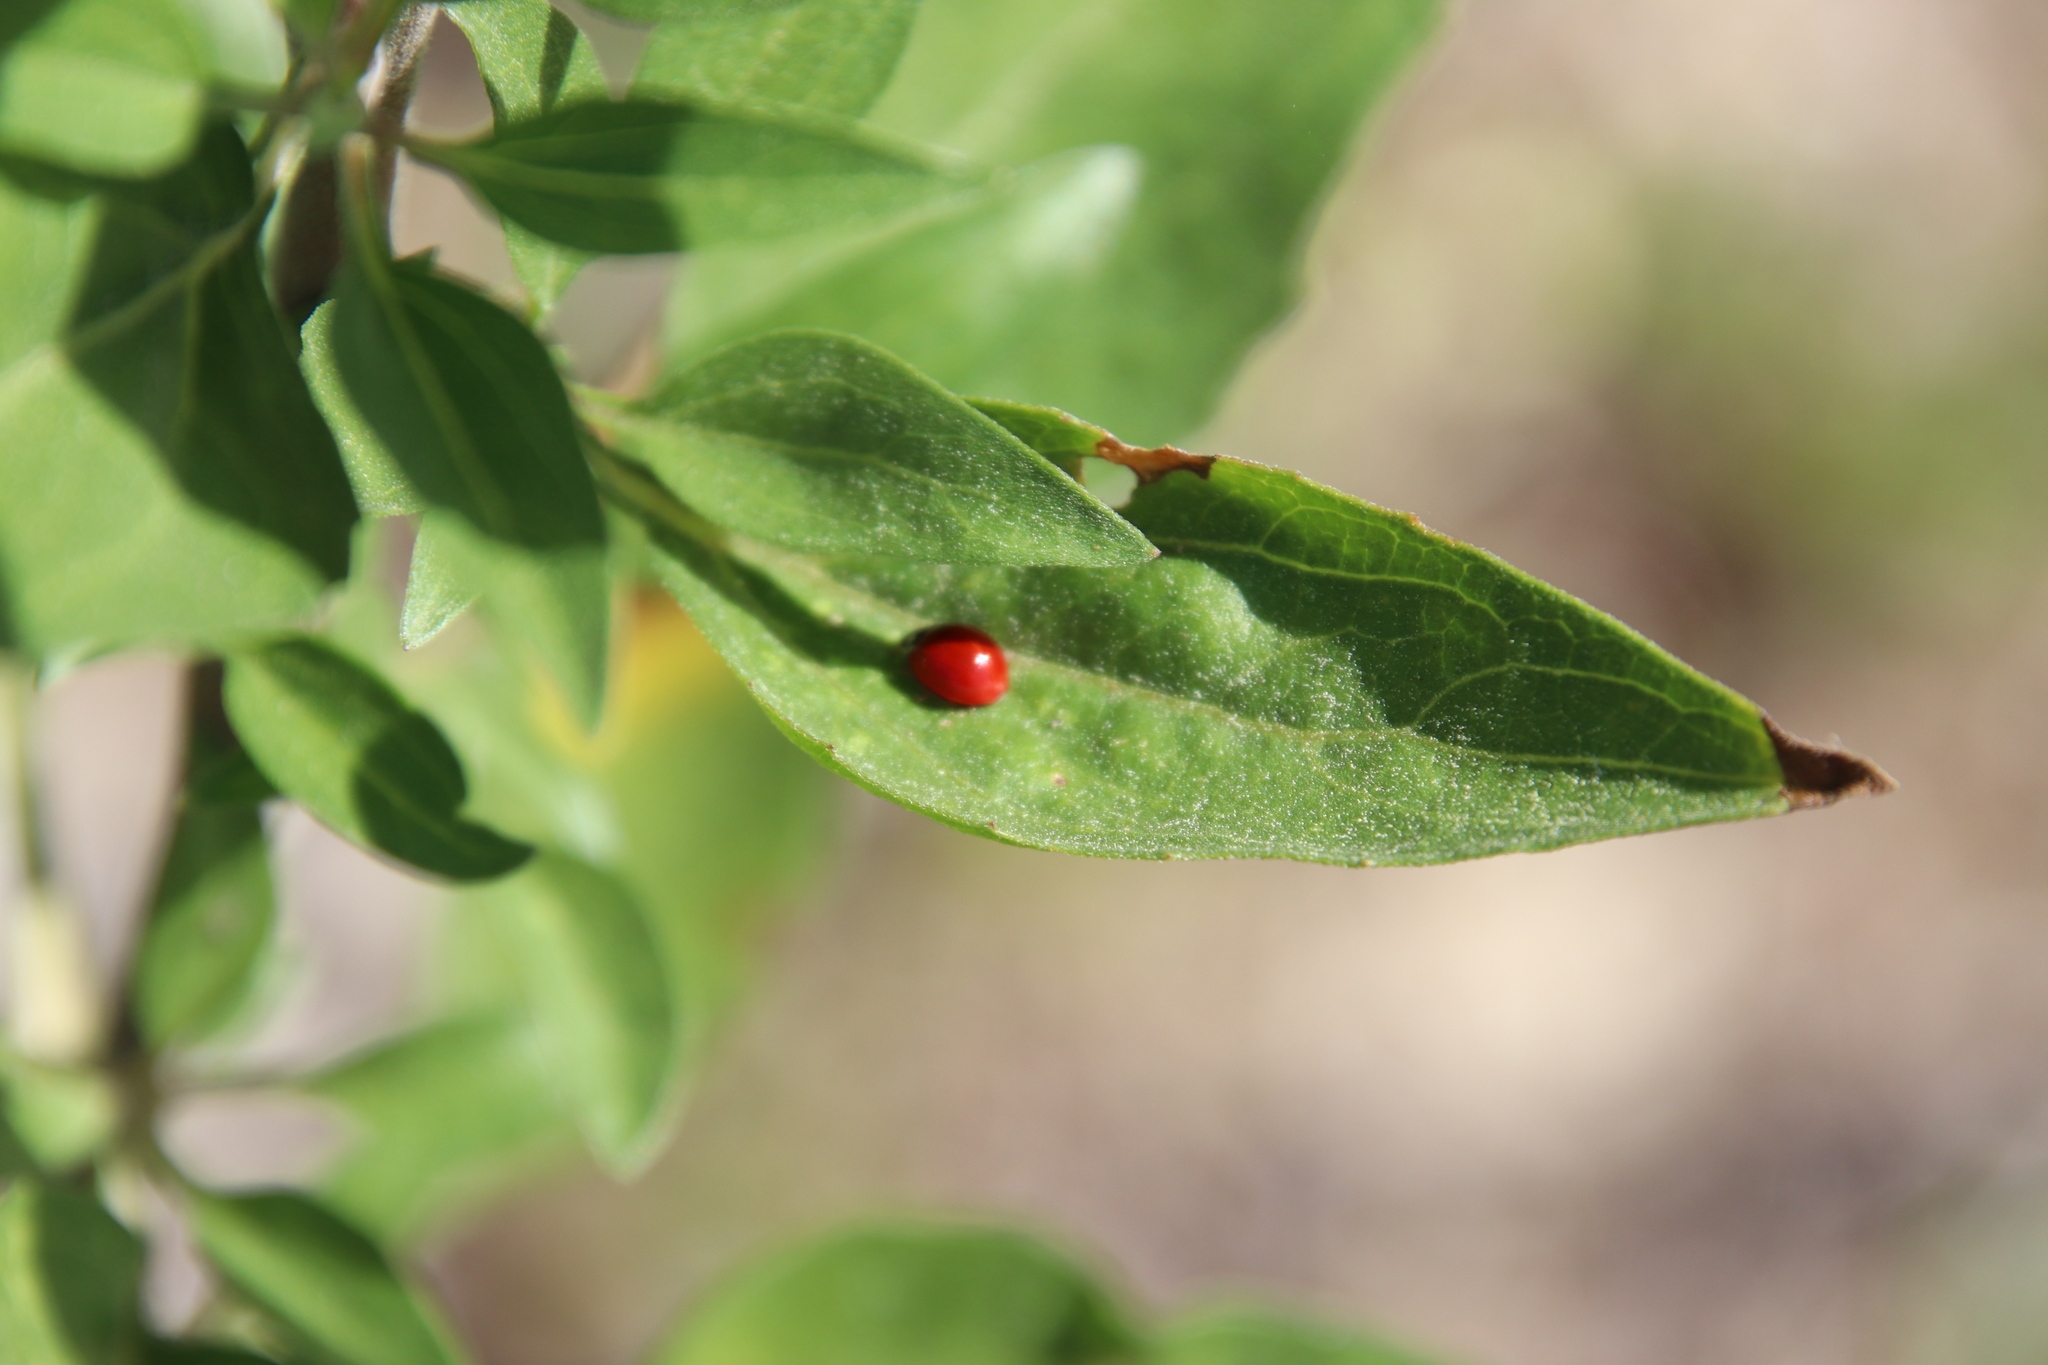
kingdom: Animalia
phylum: Arthropoda
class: Insecta
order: Coleoptera
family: Coccinellidae
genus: Cycloneda
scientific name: Cycloneda sanguinea
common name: Ladybird beetle
